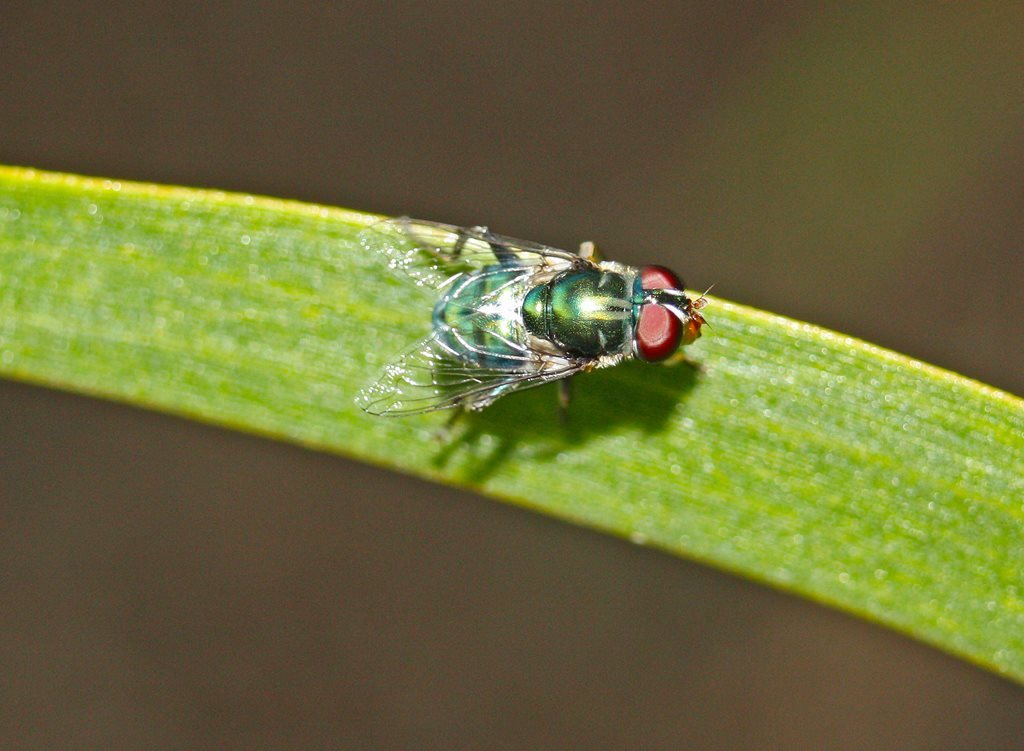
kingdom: Animalia
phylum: Arthropoda
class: Insecta
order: Diptera
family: Syrphidae
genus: Austalis
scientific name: Austalis smaragdi
